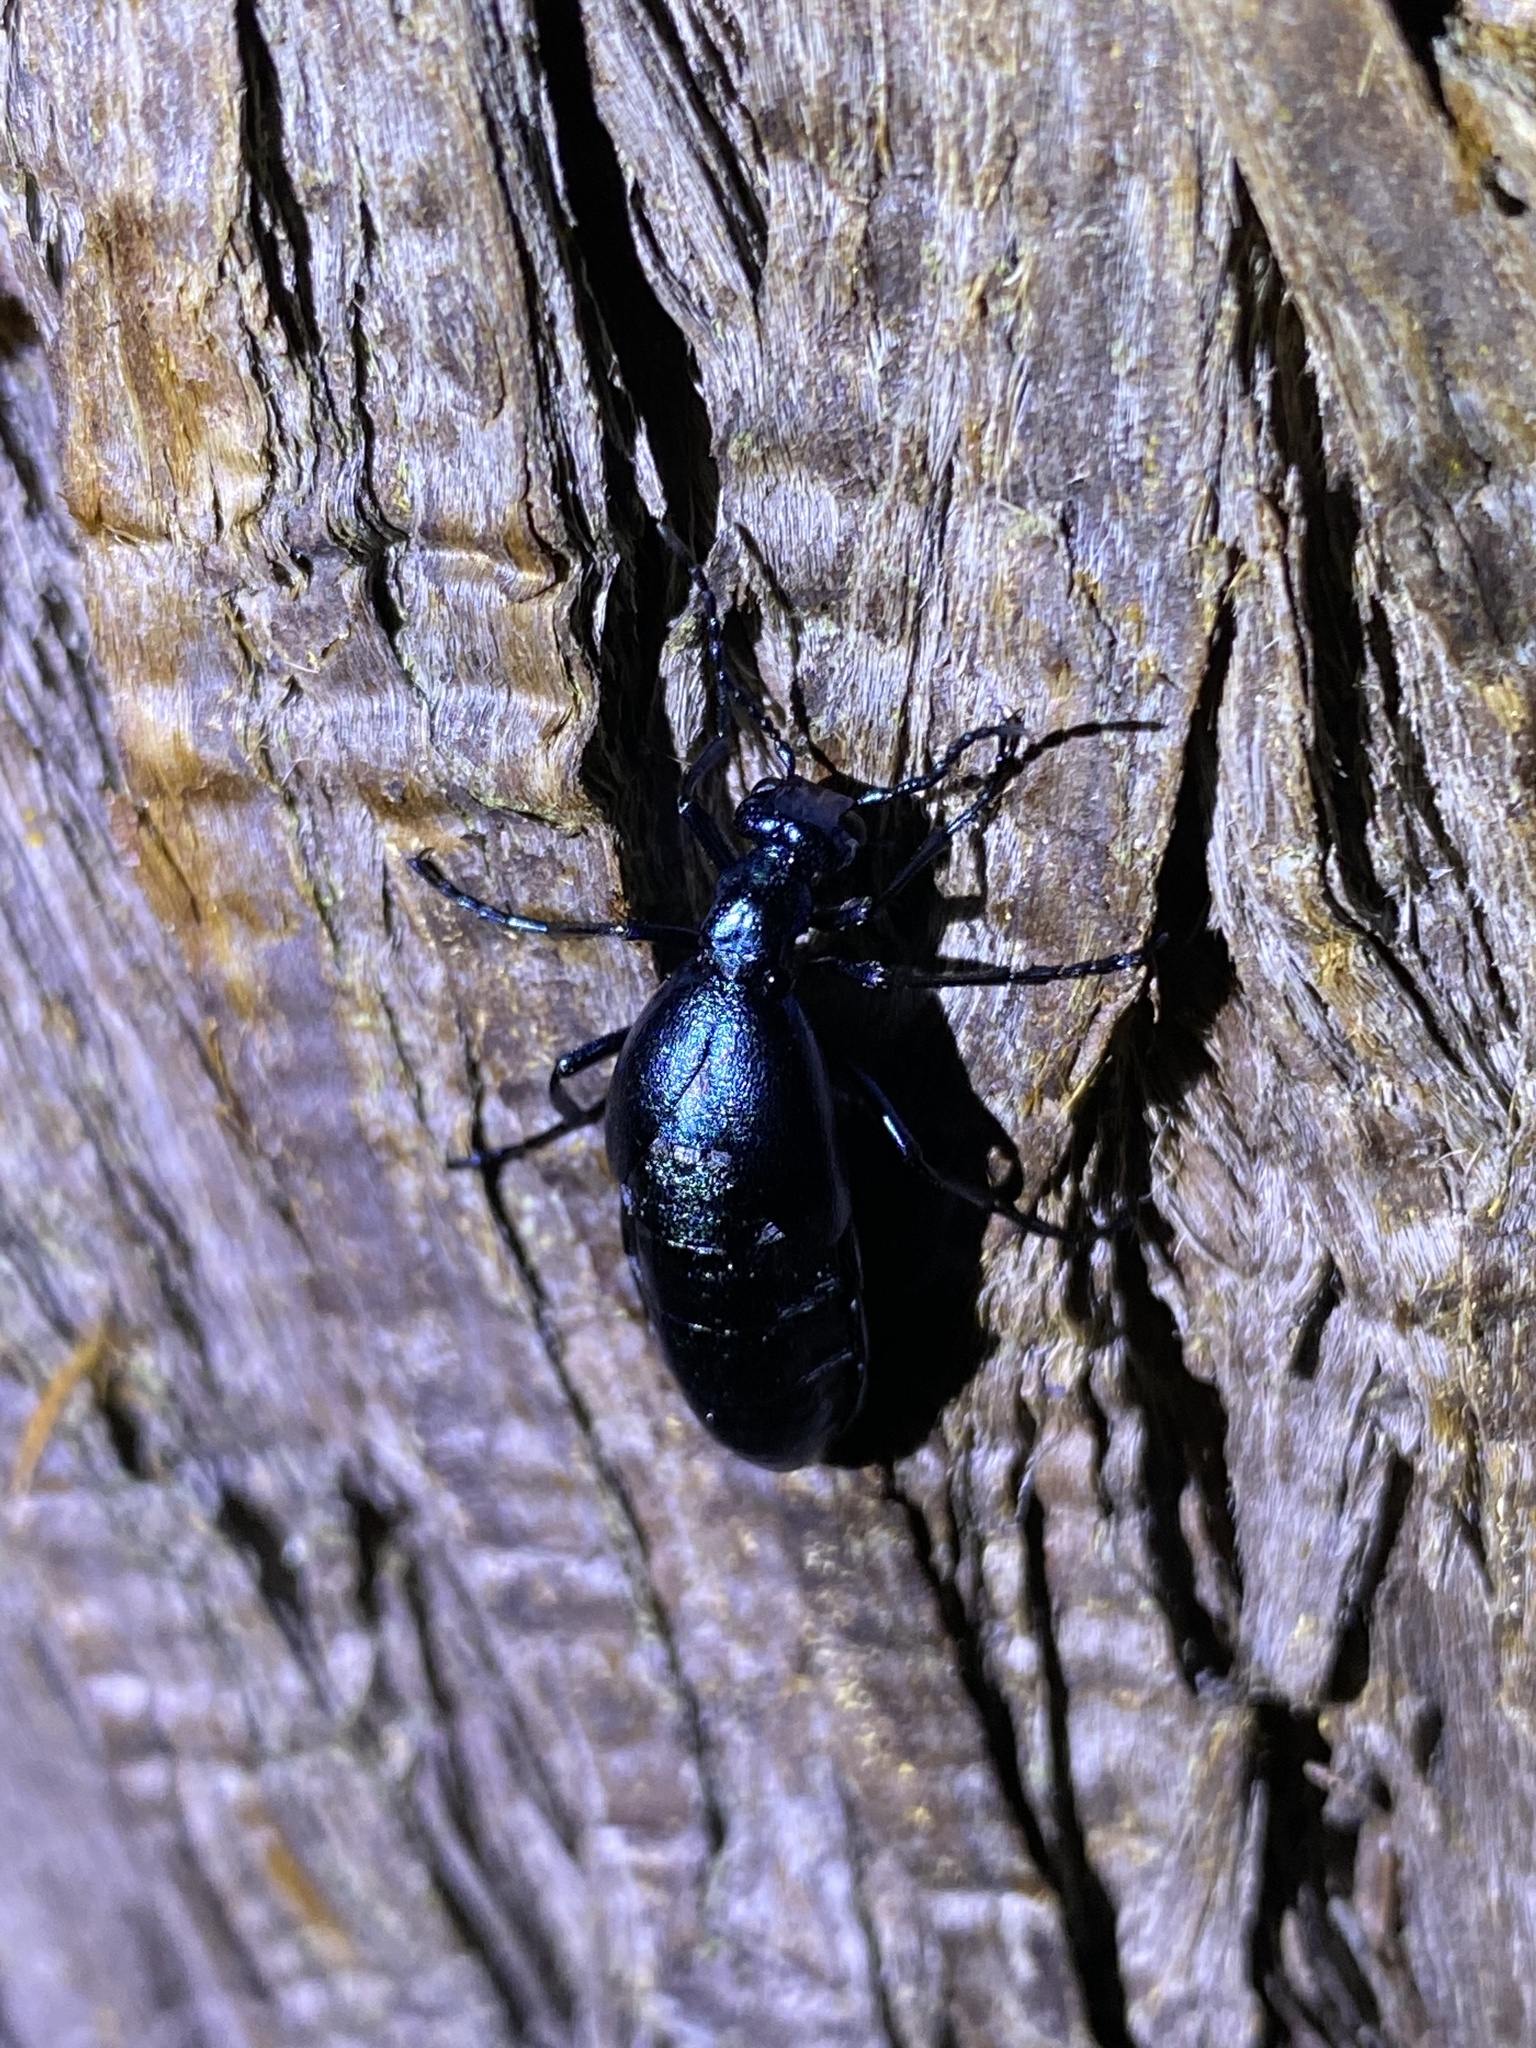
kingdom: Animalia
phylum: Arthropoda
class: Insecta
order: Coleoptera
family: Meloidae
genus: Meloe
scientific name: Meloe coarctatus
